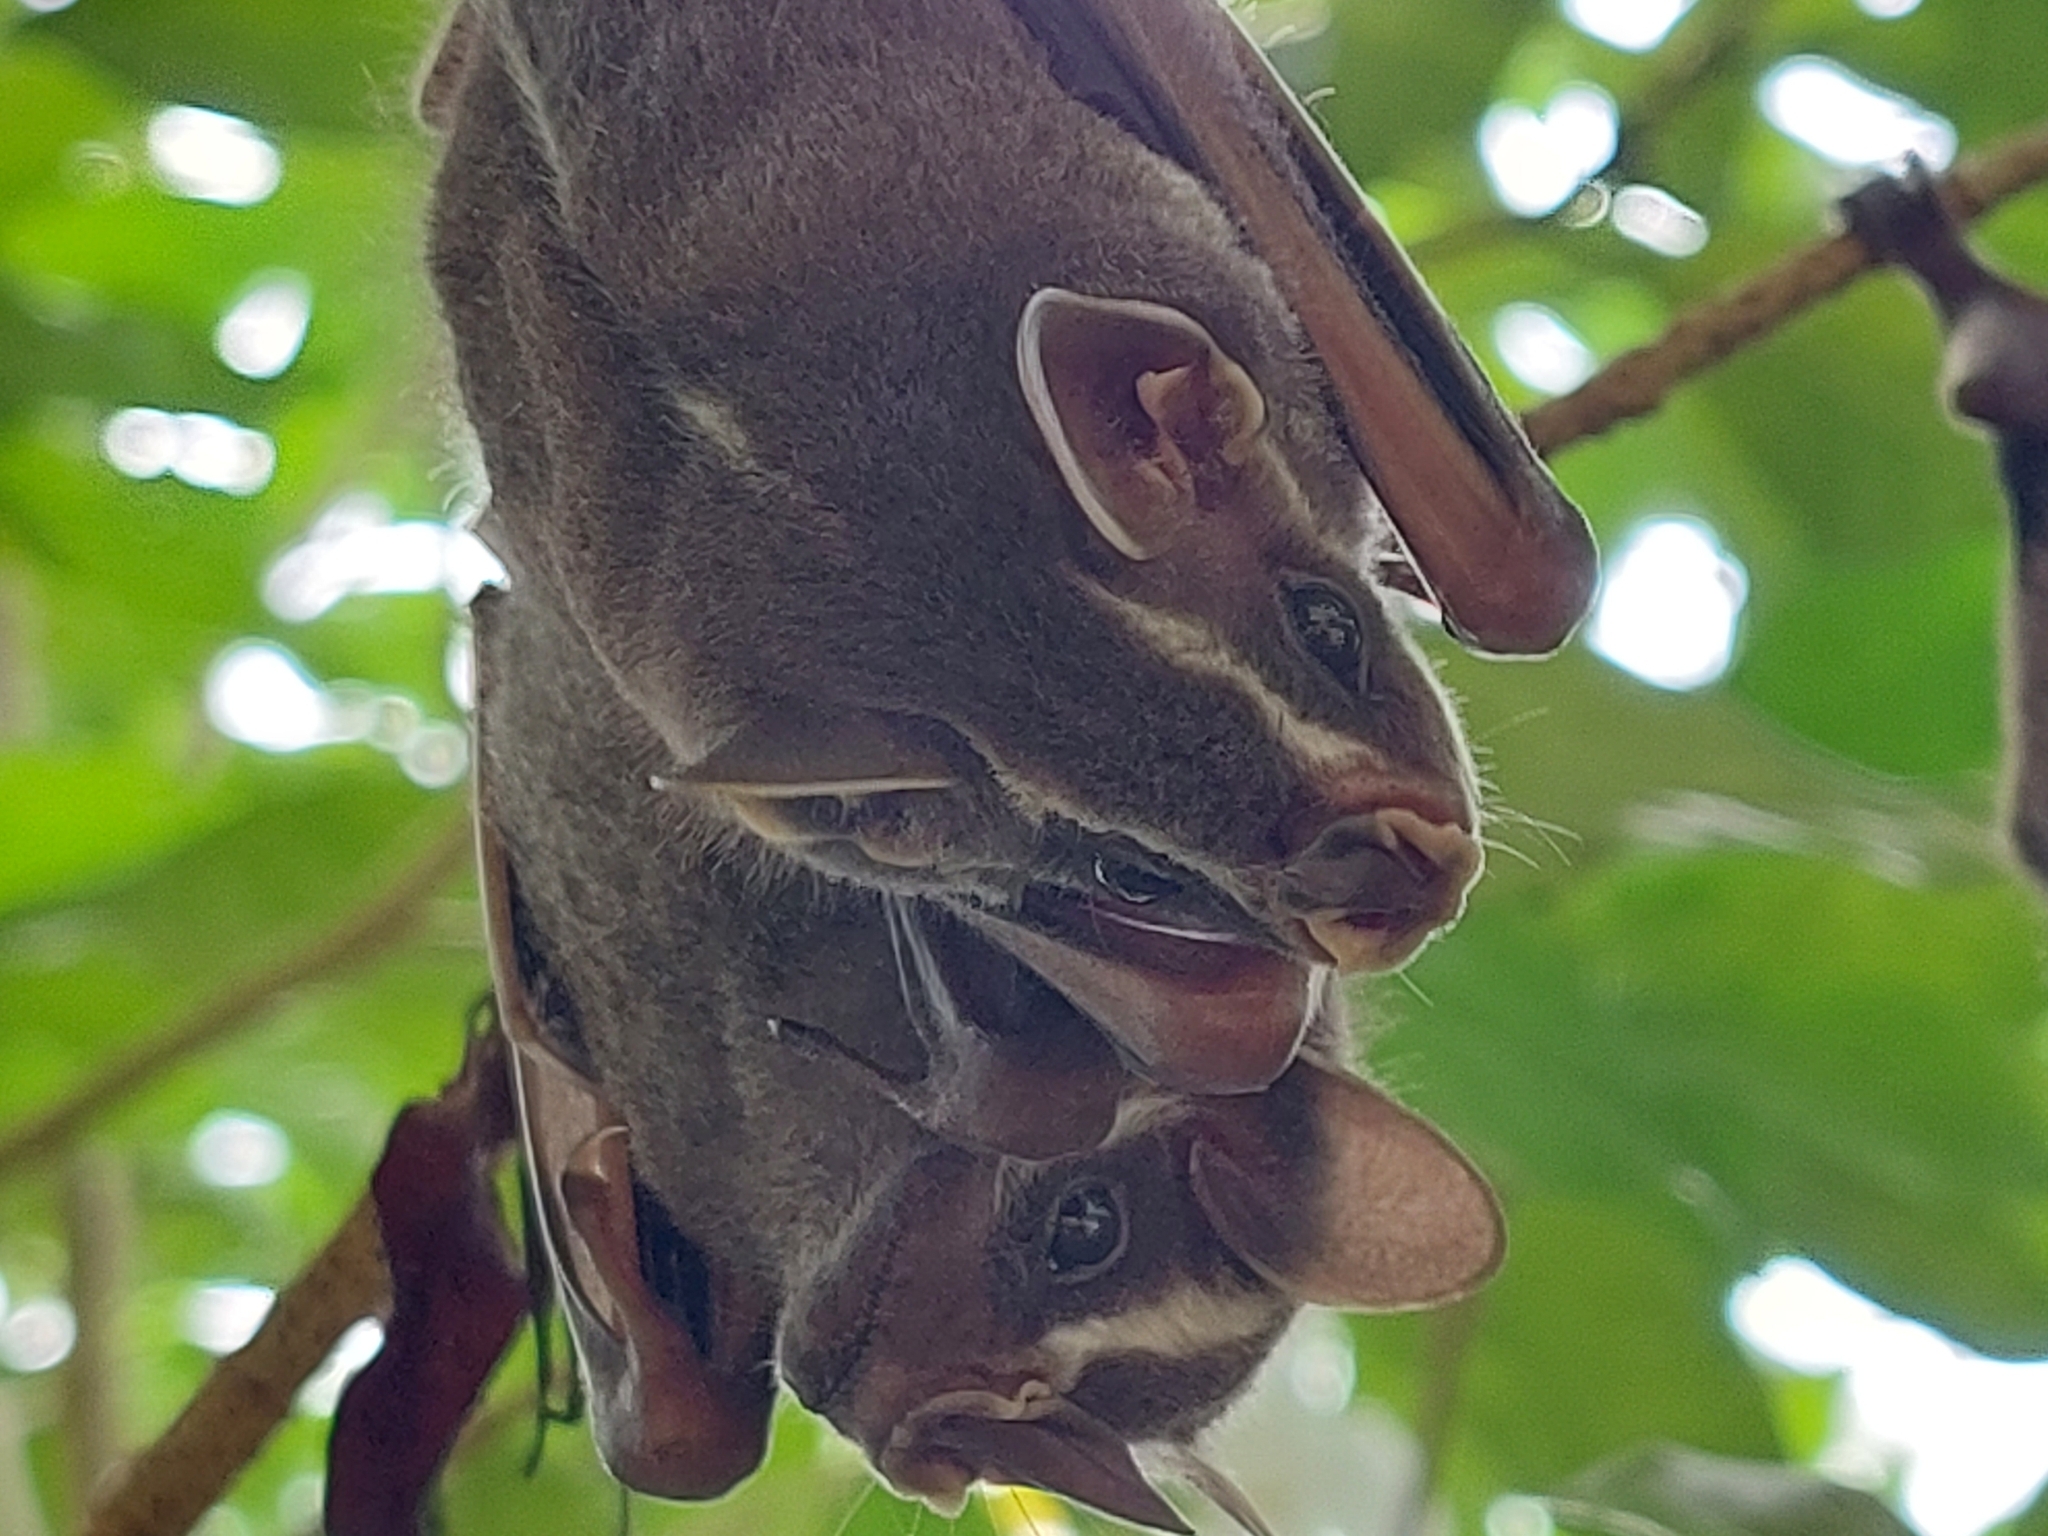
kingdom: Animalia
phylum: Chordata
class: Mammalia
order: Chiroptera
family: Phyllostomidae
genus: Uroderma
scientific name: Uroderma bilobatum
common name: Common tent-making bat
